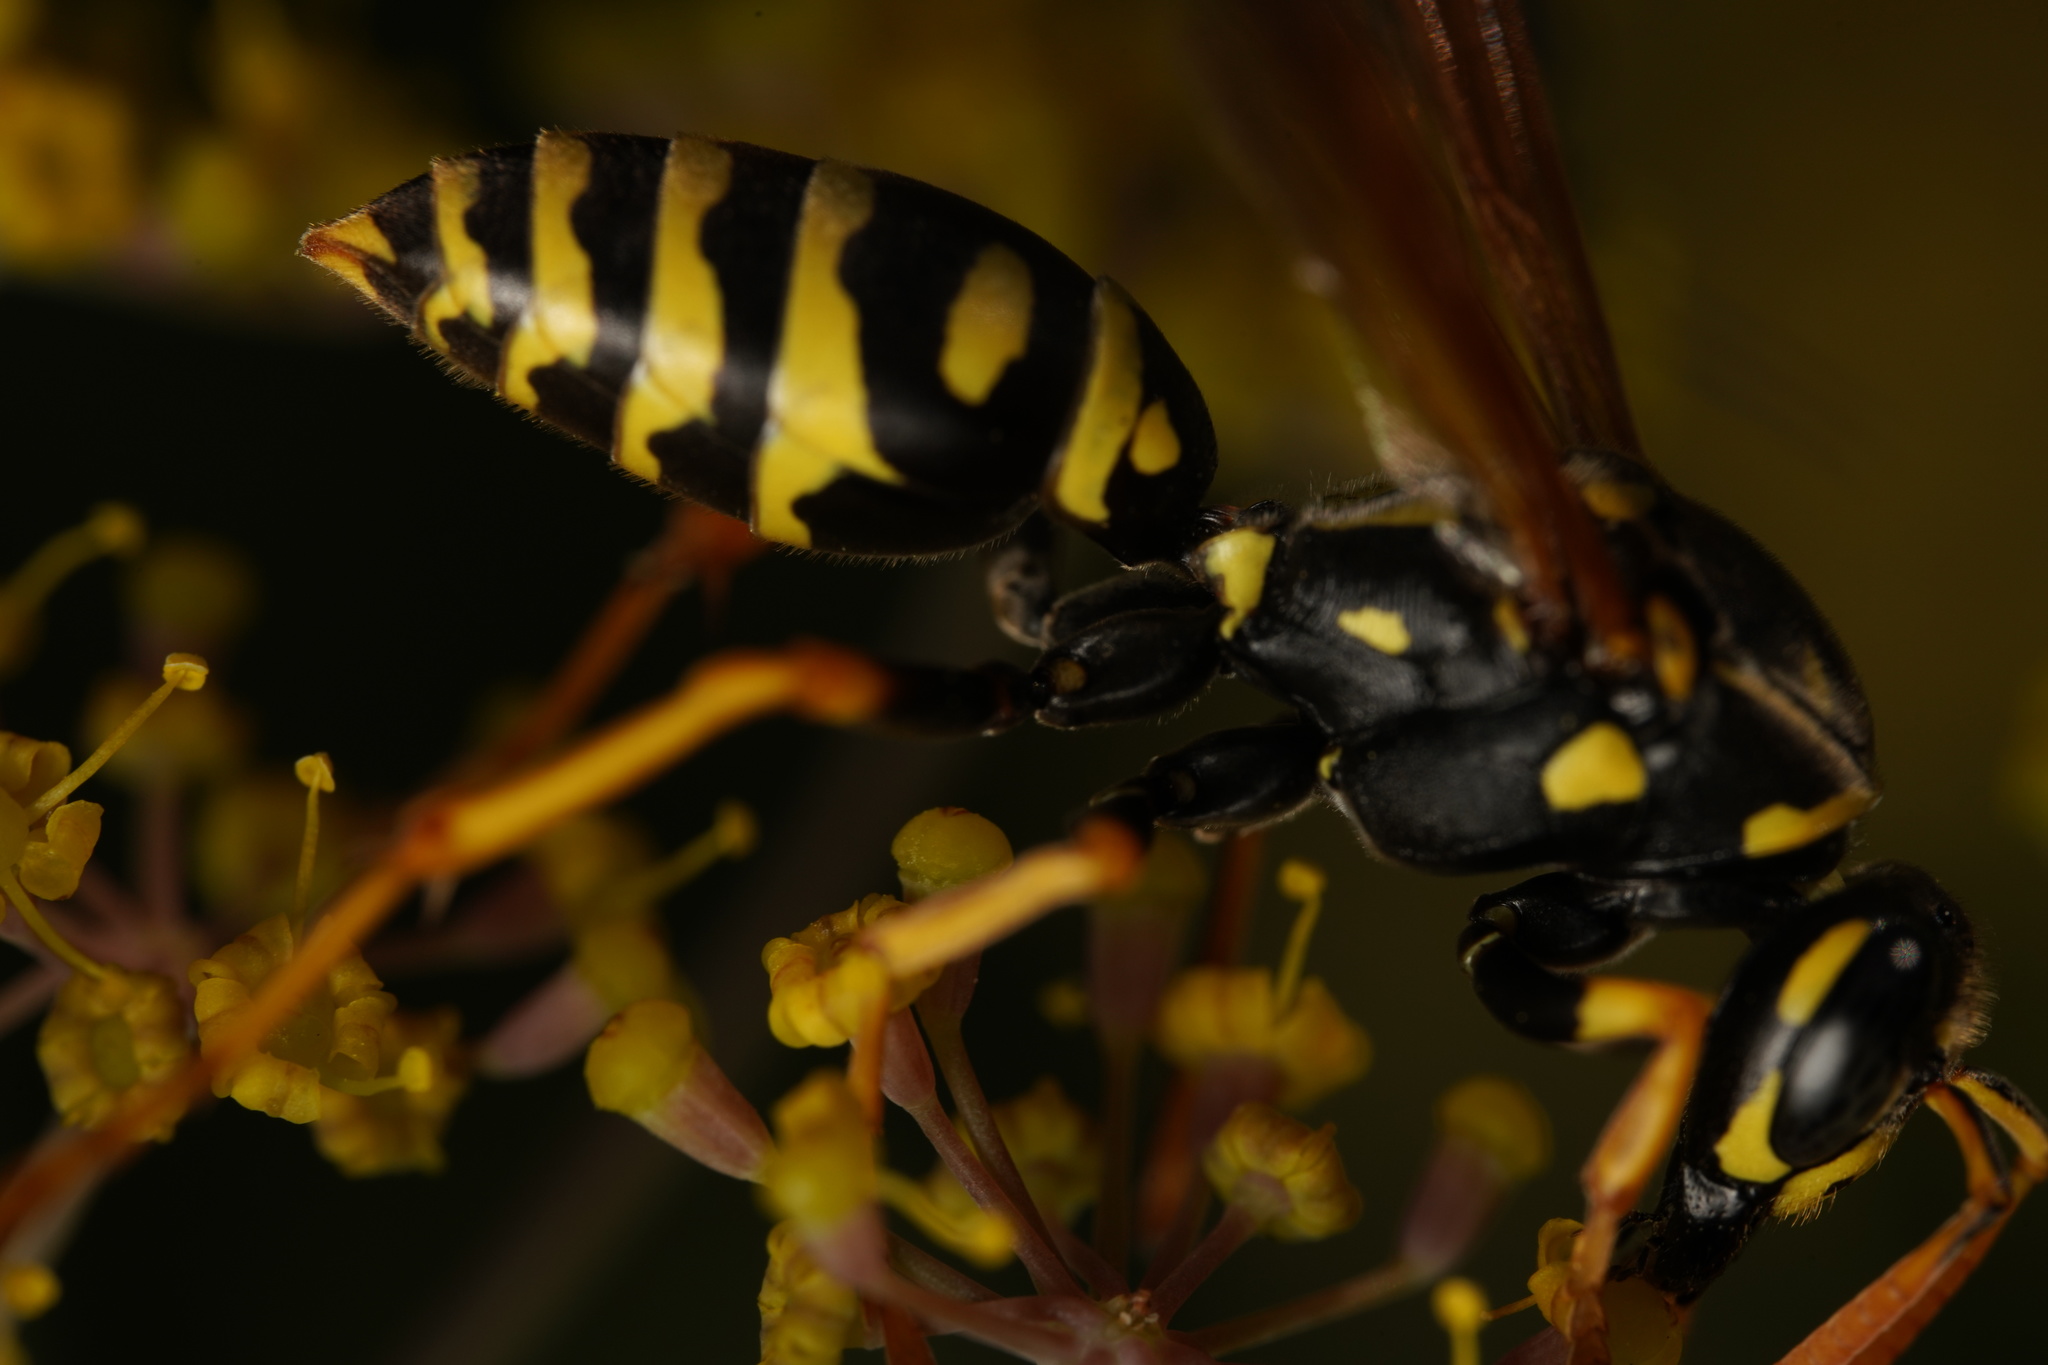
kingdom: Animalia
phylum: Arthropoda
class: Insecta
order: Hymenoptera
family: Eumenidae
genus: Polistes
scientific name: Polistes dominula
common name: Paper wasp
